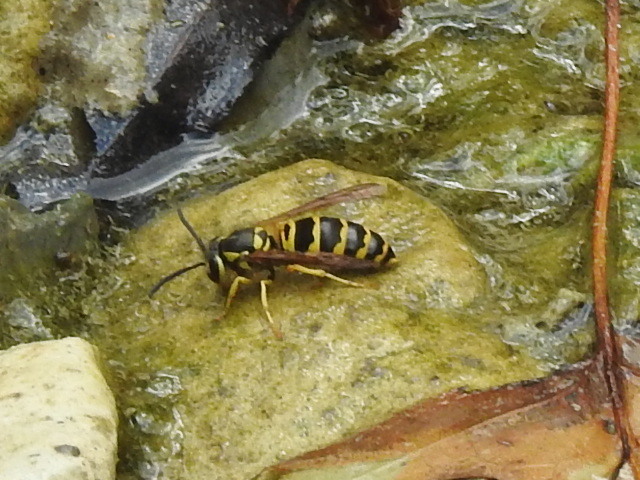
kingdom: Animalia
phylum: Arthropoda
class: Insecta
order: Hymenoptera
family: Vespidae
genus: Vespula
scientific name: Vespula maculifrons
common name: Eastern yellowjacket
